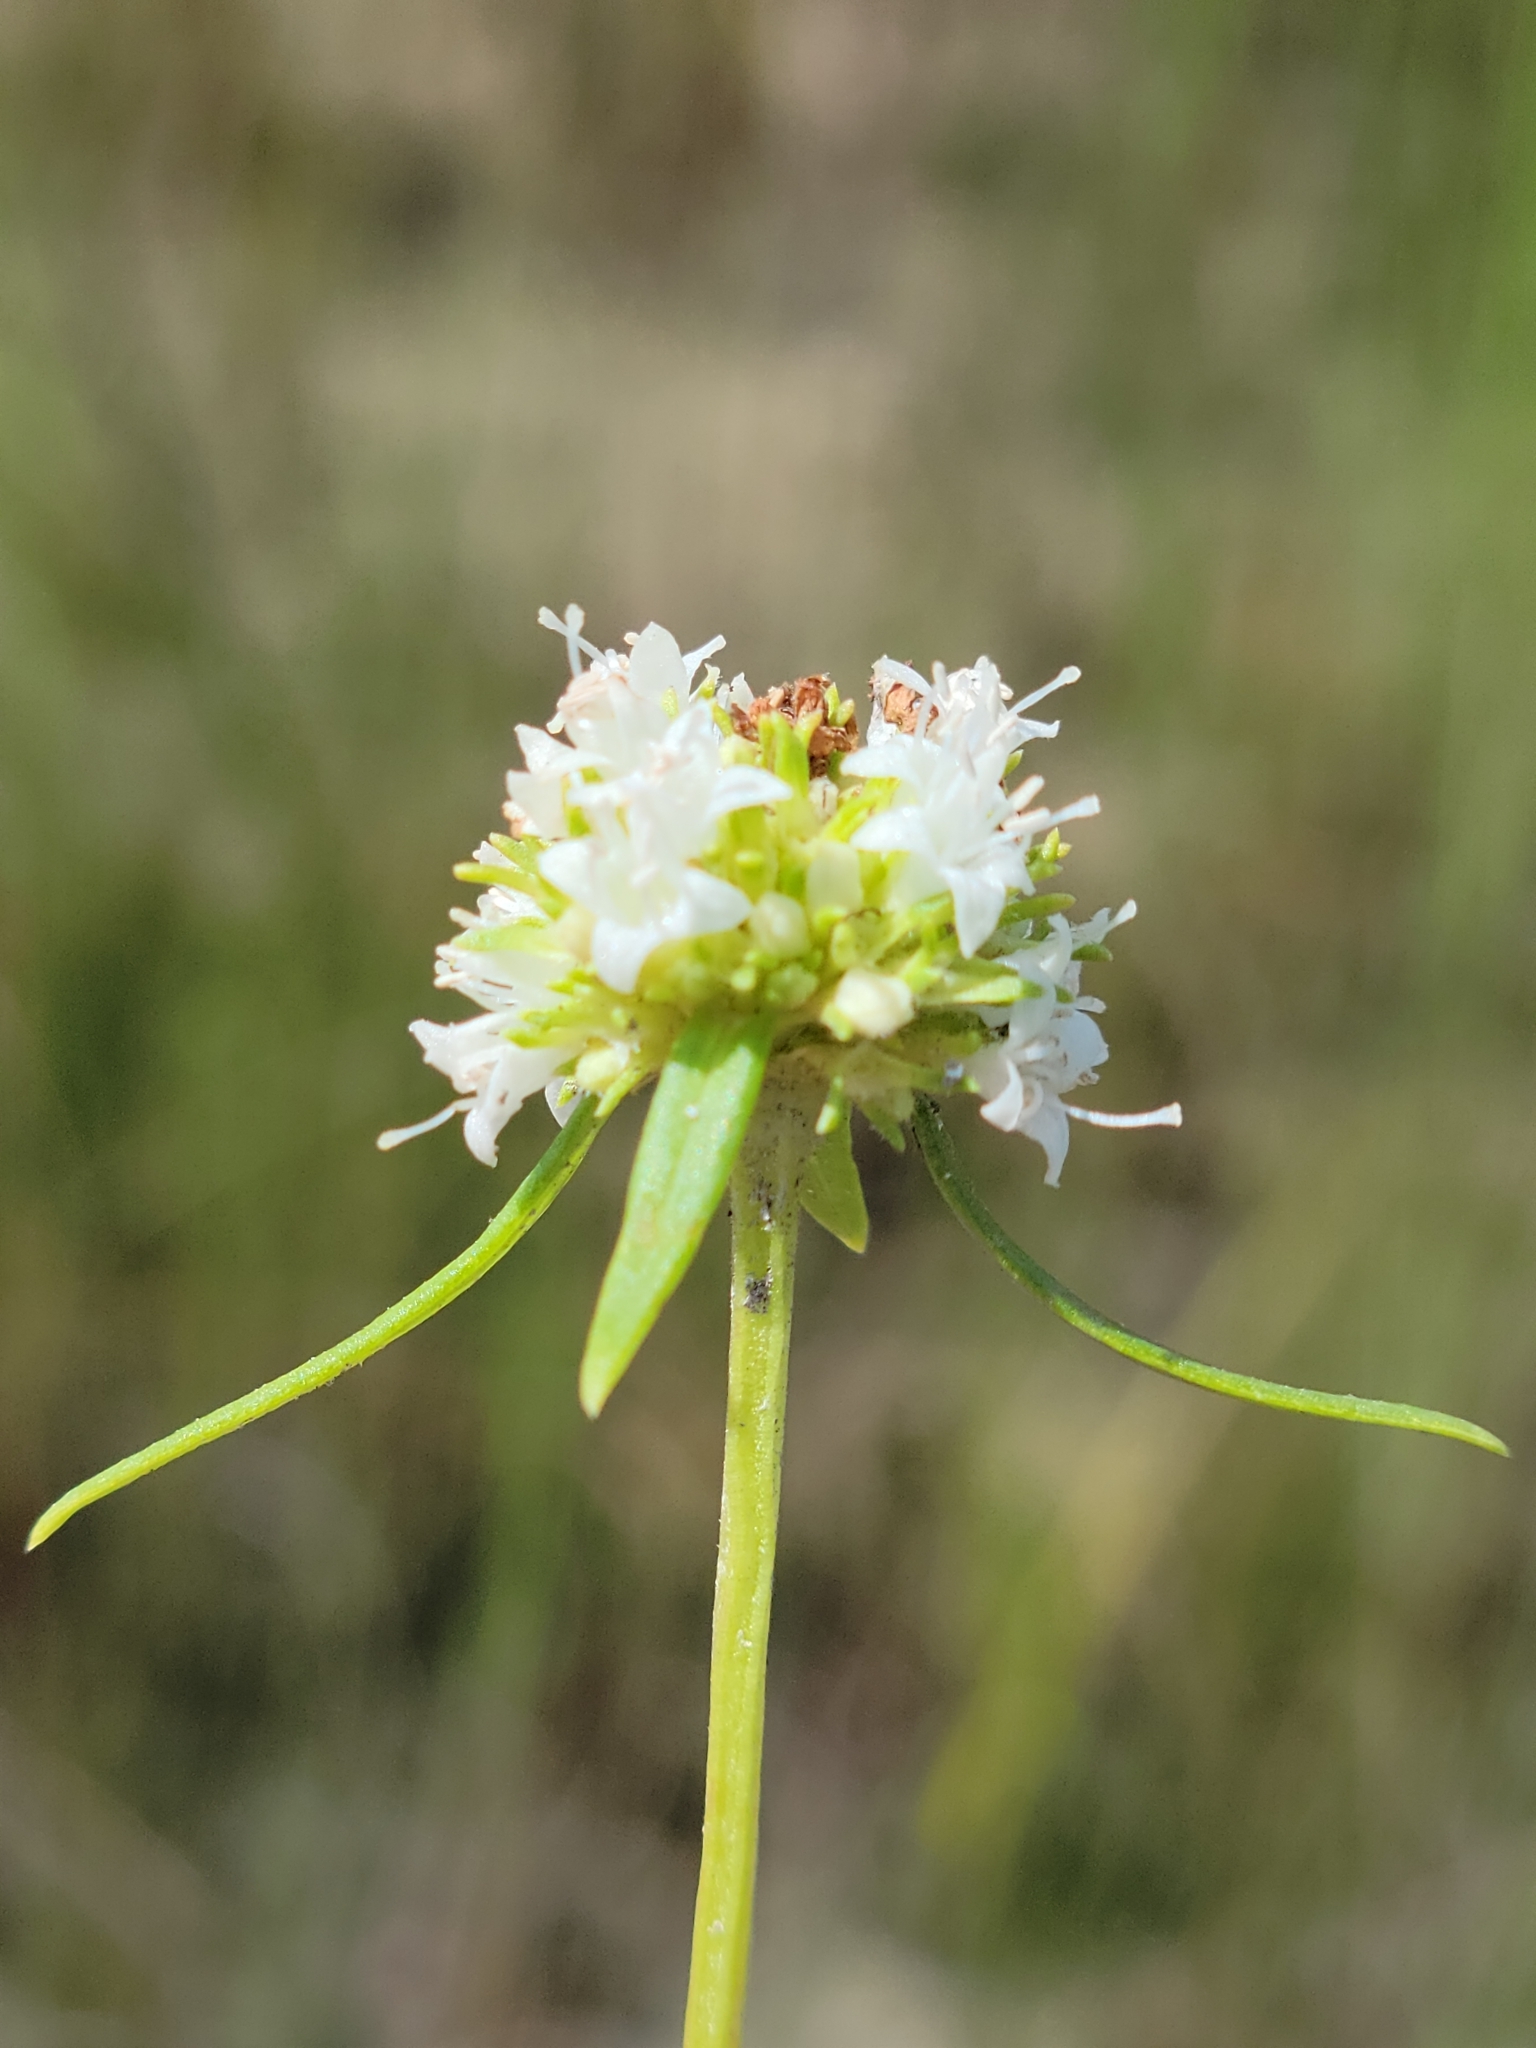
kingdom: Plantae
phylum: Tracheophyta
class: Magnoliopsida
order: Gentianales
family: Rubiaceae
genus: Spermacoce
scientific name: Spermacoce neoterminalis
